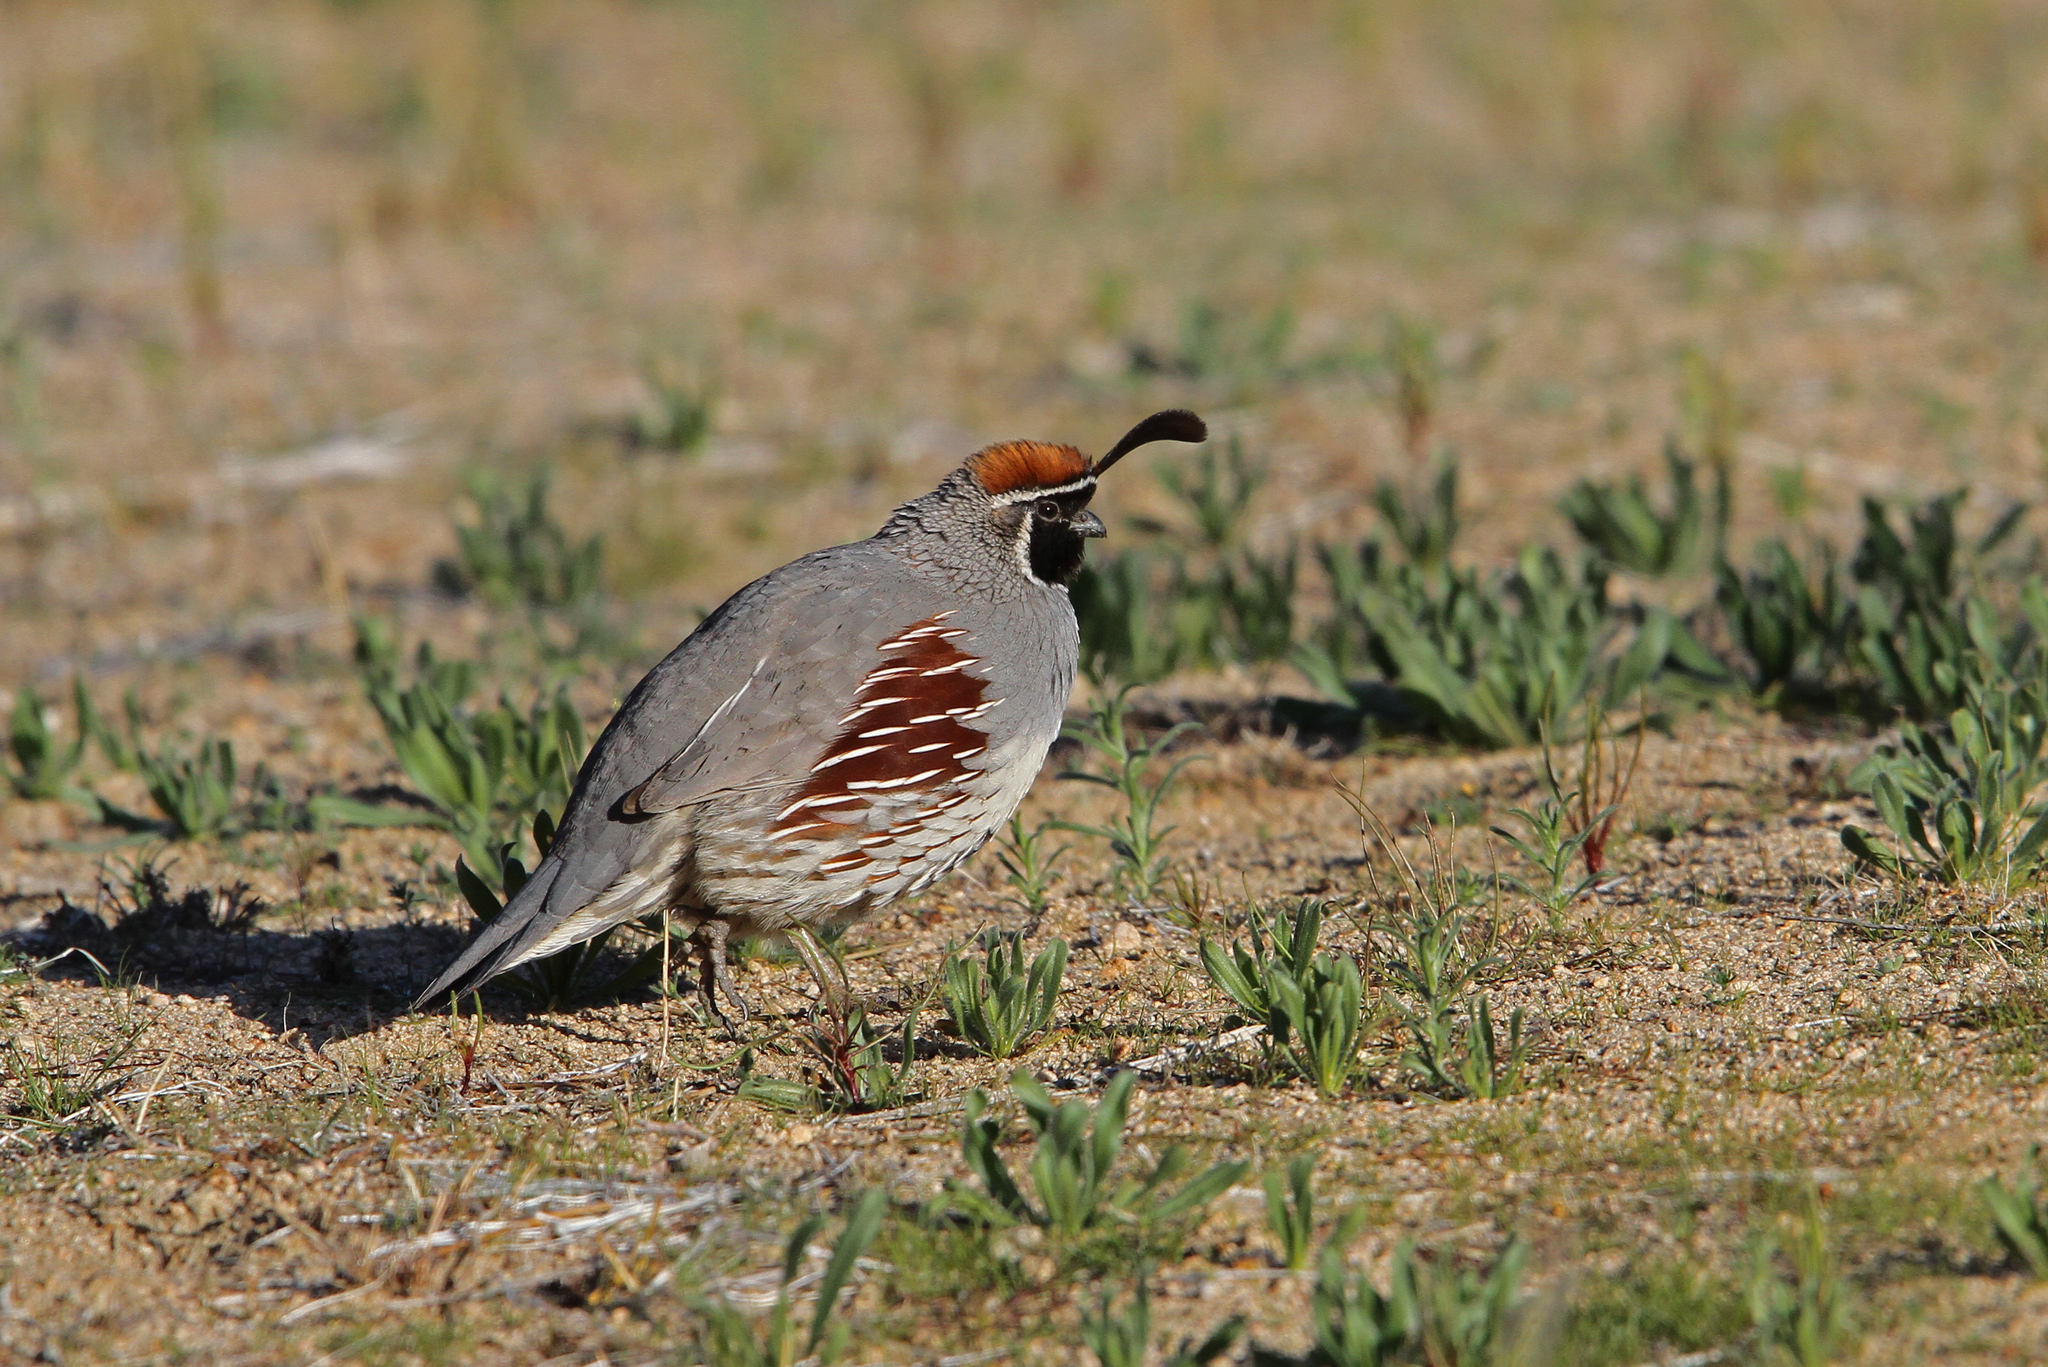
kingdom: Animalia
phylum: Chordata
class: Aves
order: Galliformes
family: Odontophoridae
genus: Callipepla
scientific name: Callipepla gambelii
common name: Gambel's quail
